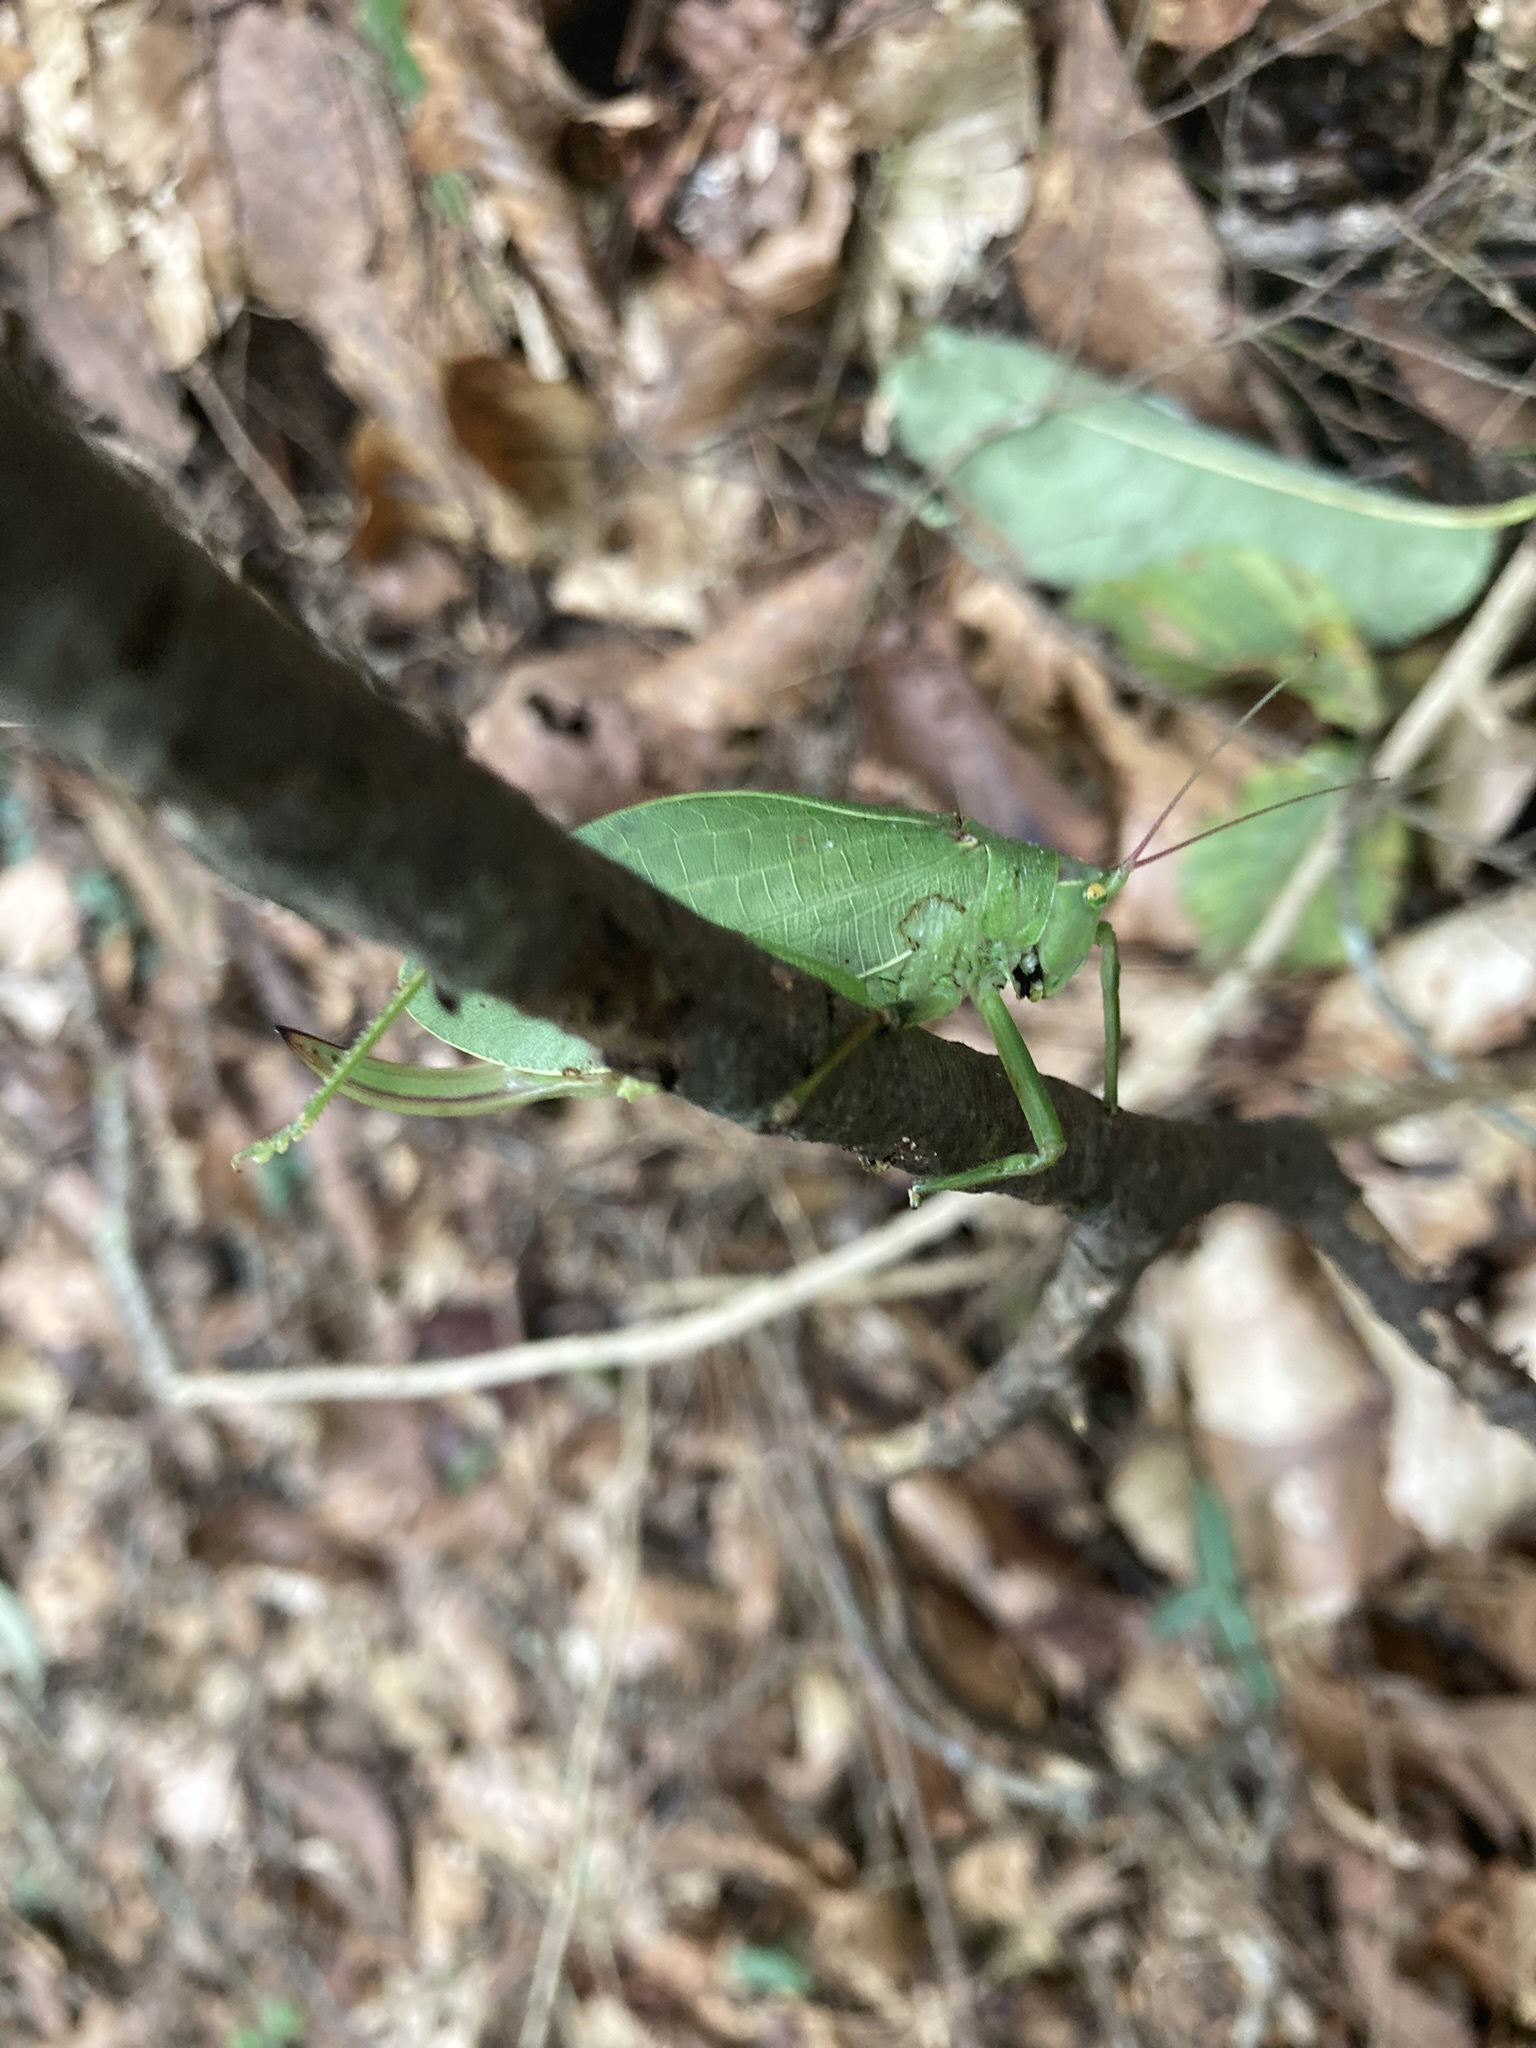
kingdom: Animalia
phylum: Arthropoda
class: Insecta
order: Orthoptera
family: Tettigoniidae
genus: Pterophylla
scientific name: Pterophylla camellifolia
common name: Common true katydid
